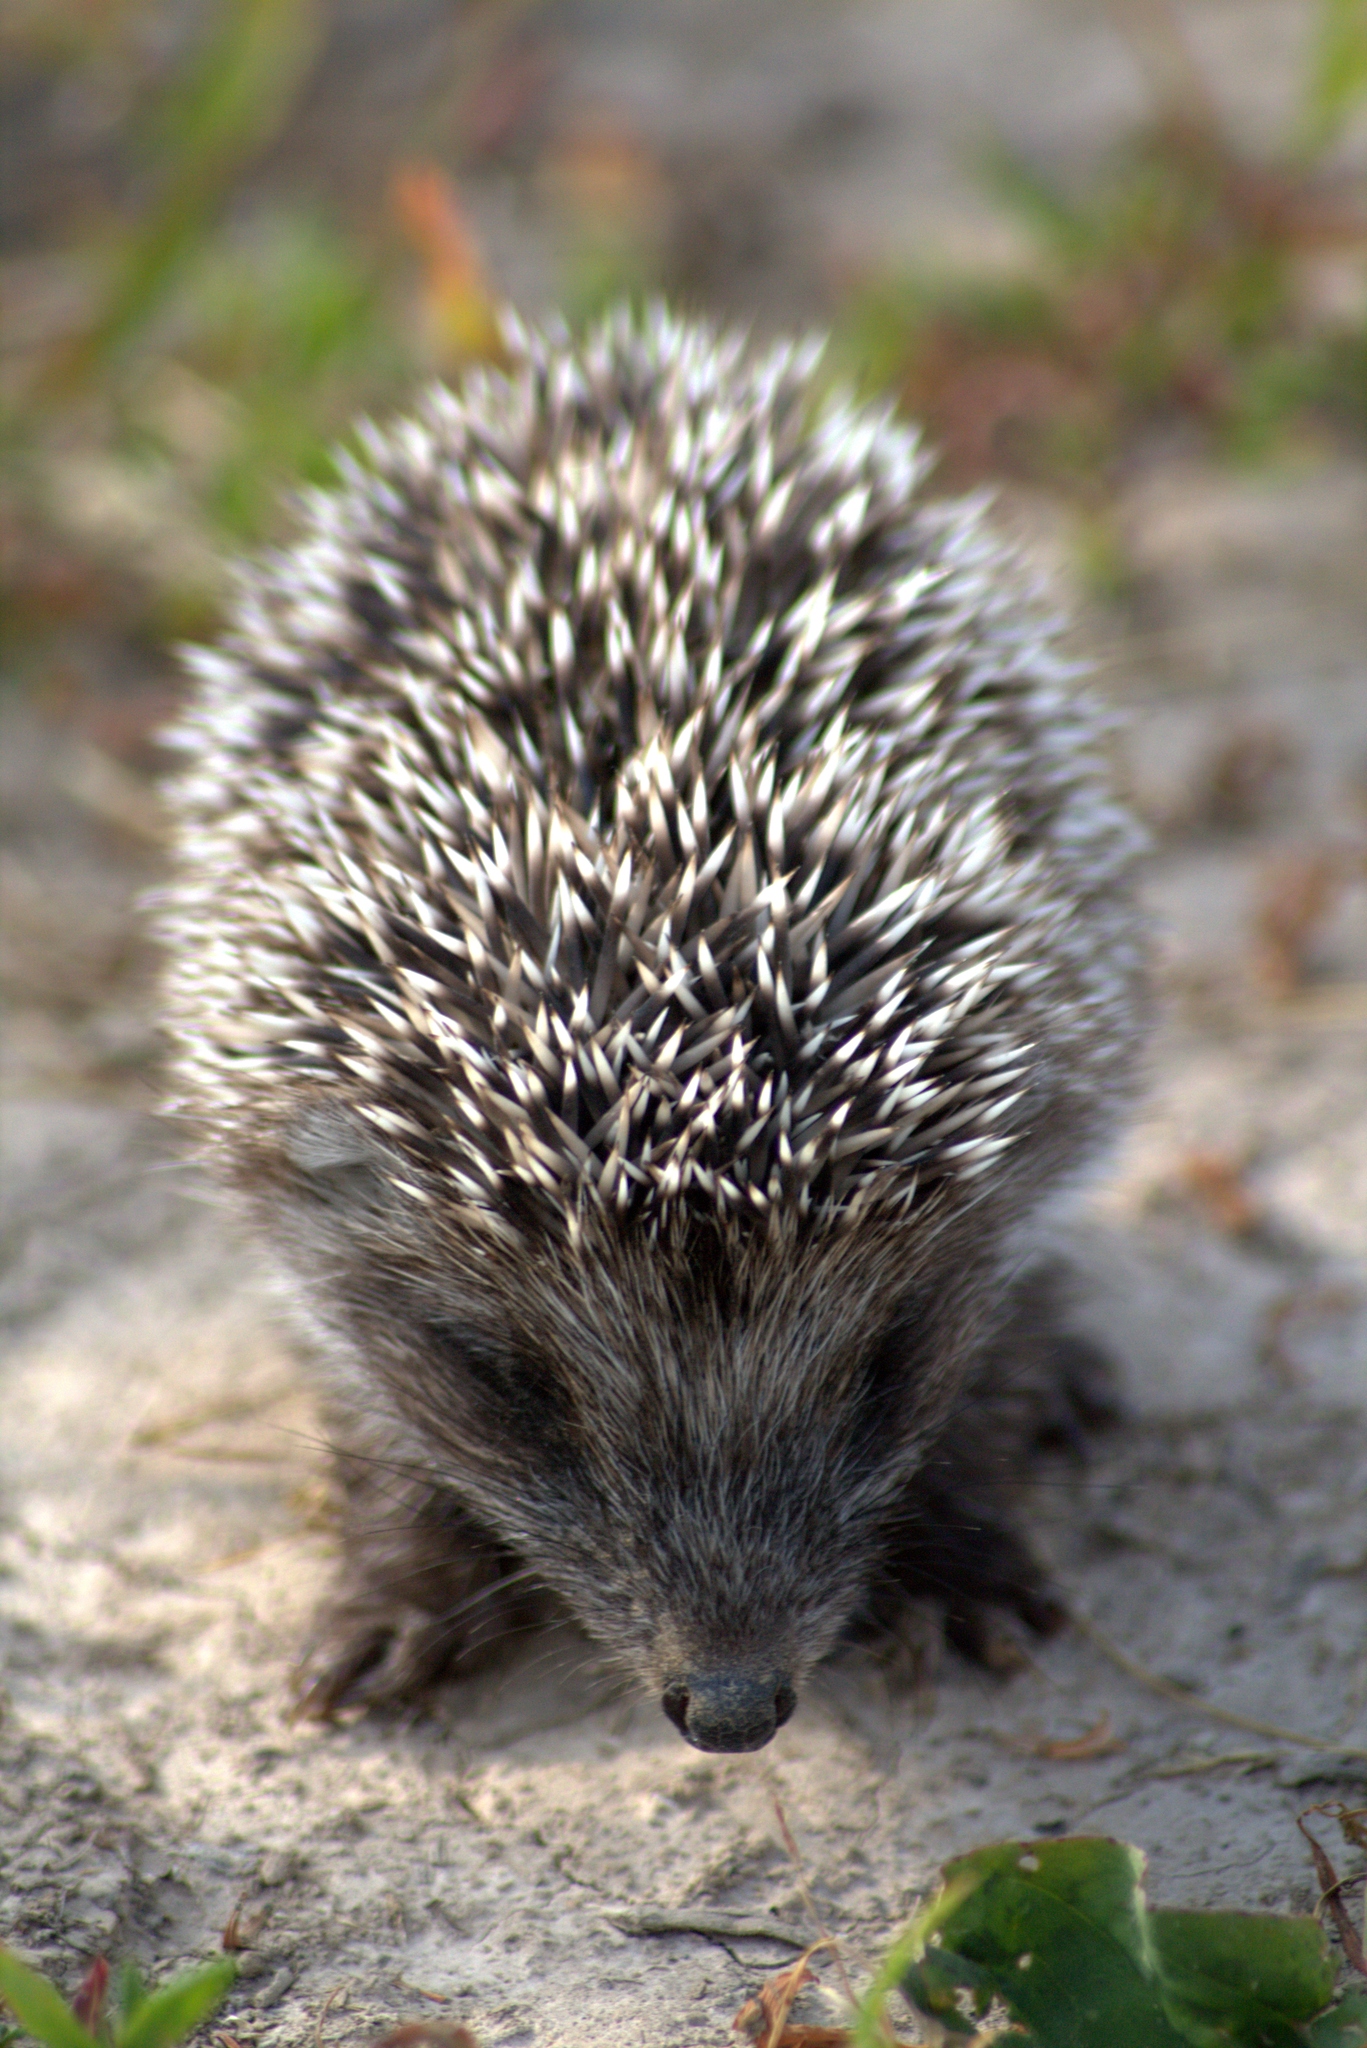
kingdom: Animalia
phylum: Chordata
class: Mammalia
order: Erinaceomorpha
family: Erinaceidae
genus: Erinaceus
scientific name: Erinaceus roumanicus
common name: Northern white-breasted hedgehog
